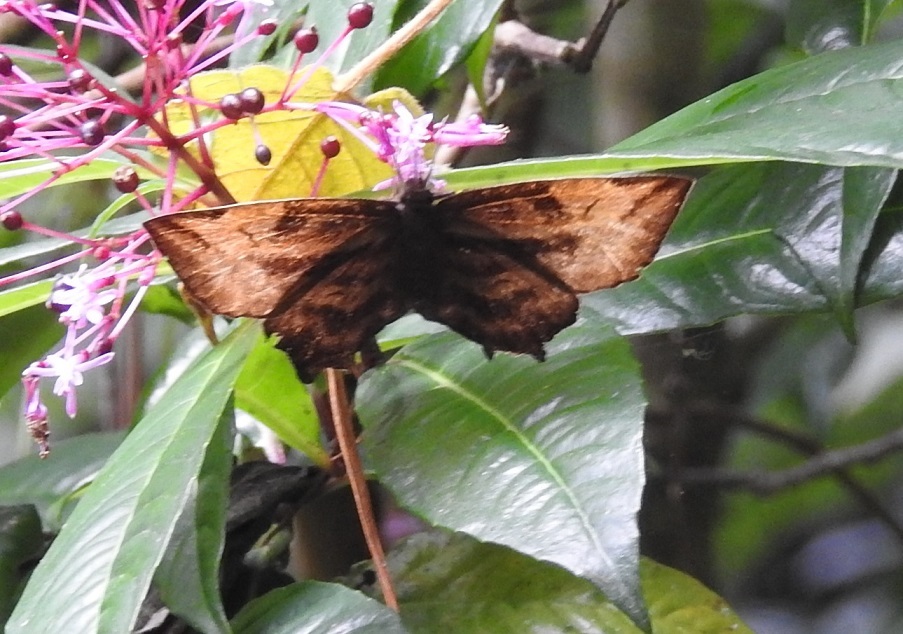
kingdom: Animalia
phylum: Arthropoda
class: Insecta
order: Lepidoptera
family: Hesperiidae
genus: Doberes
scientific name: Doberes anticus
